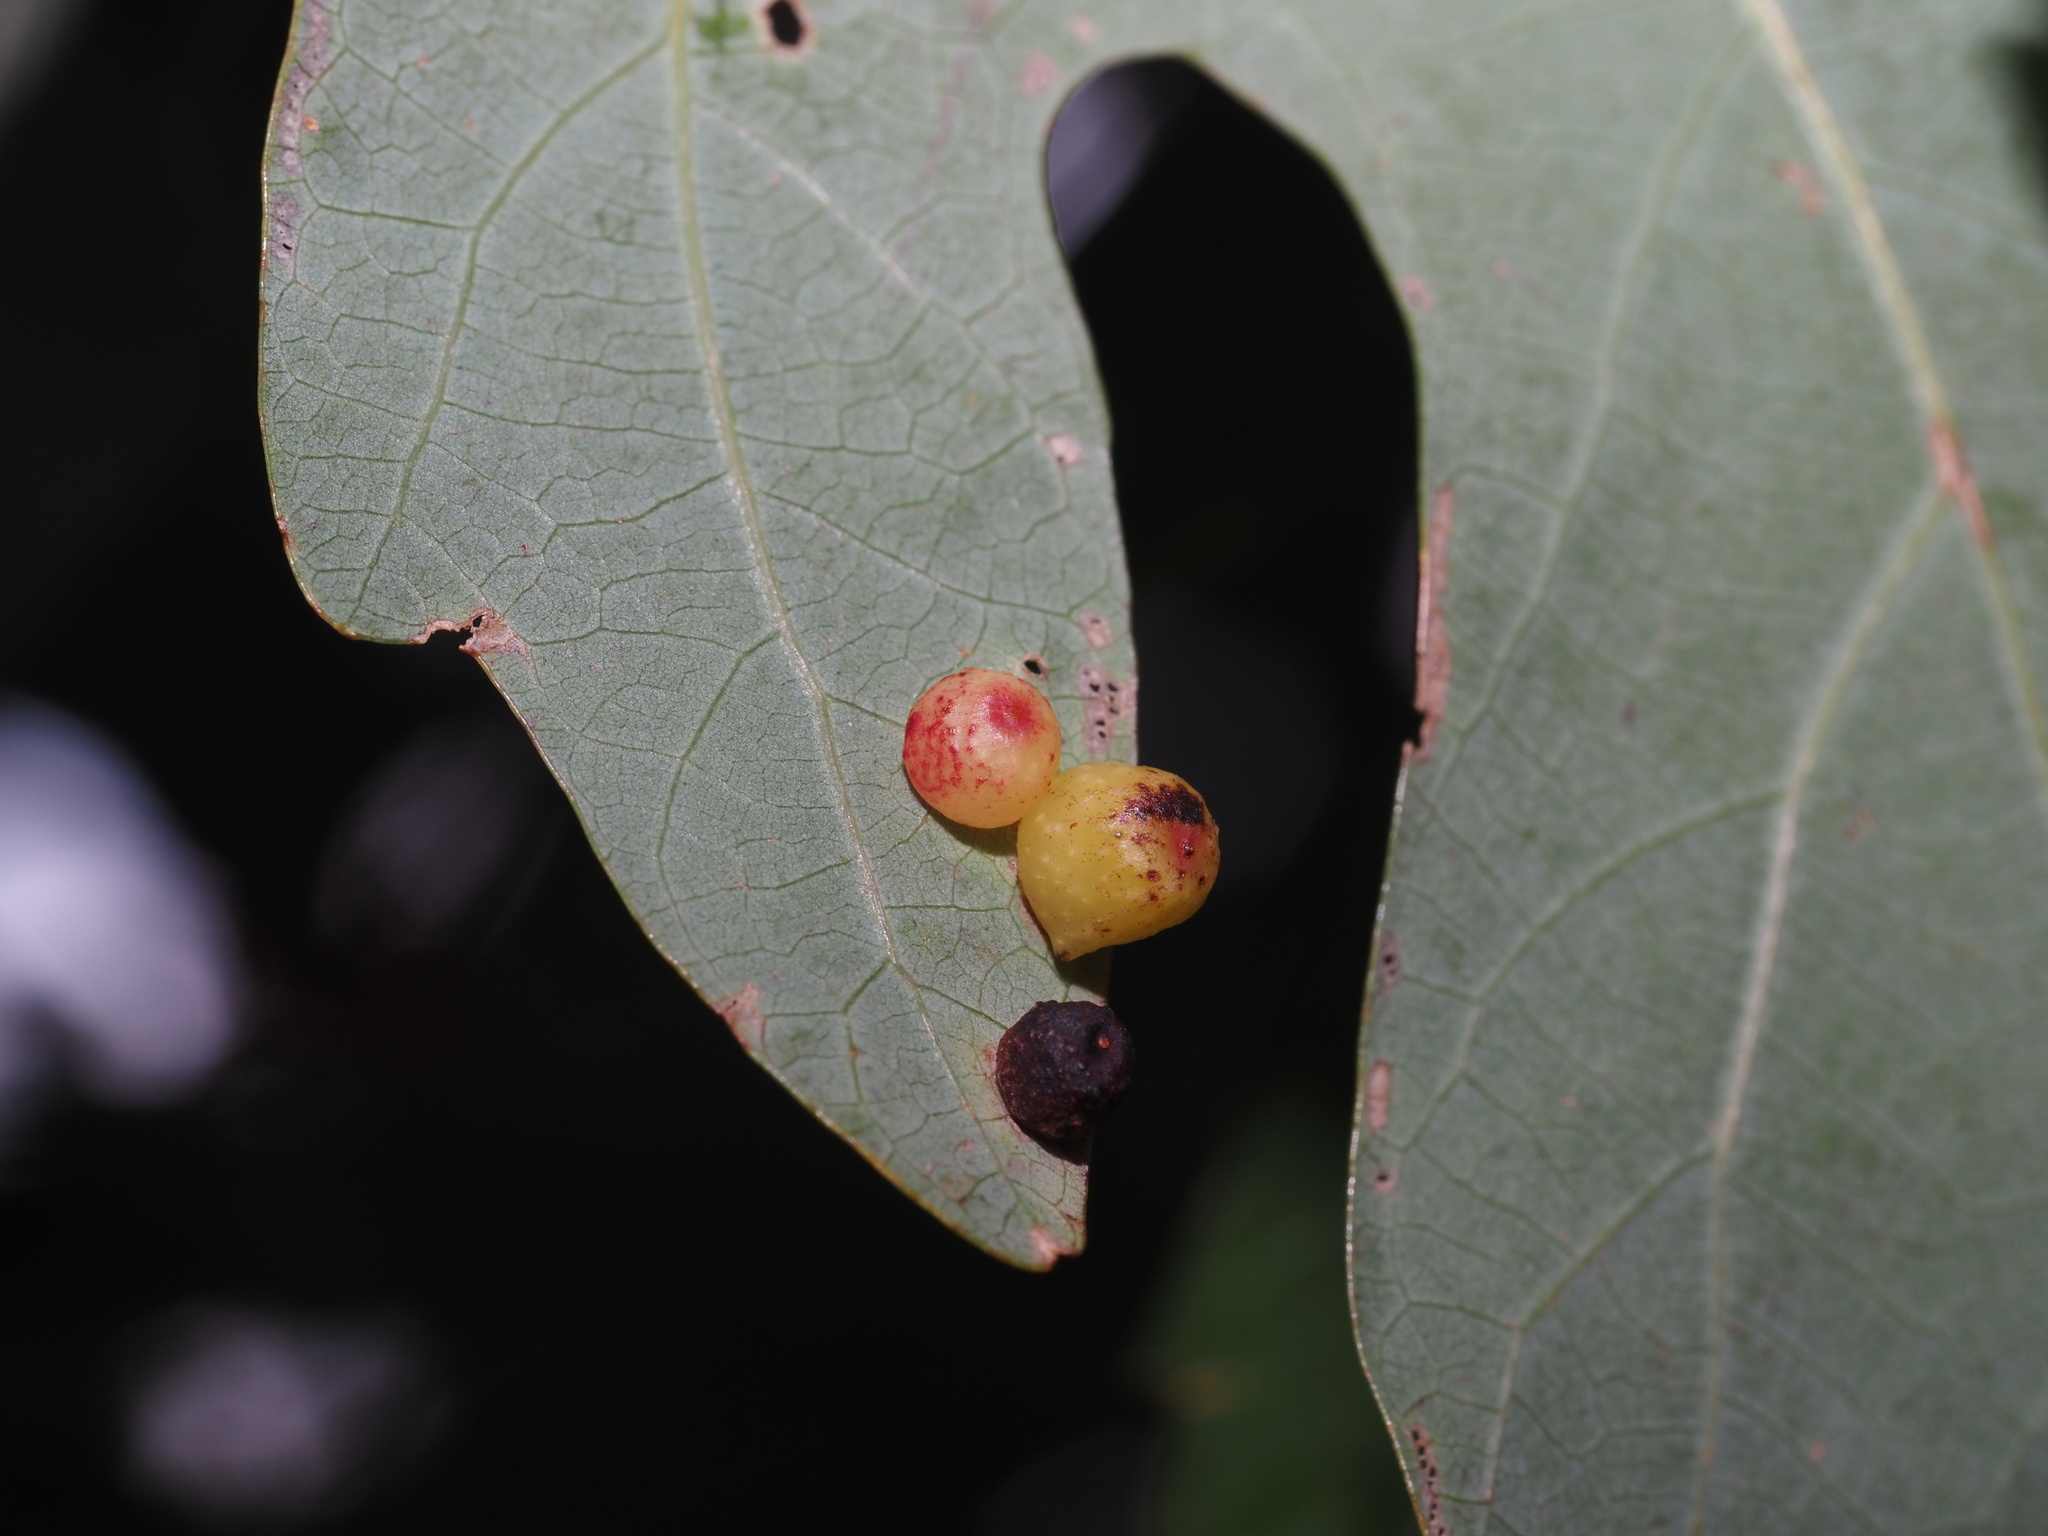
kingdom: Animalia
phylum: Arthropoda
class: Insecta
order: Hymenoptera
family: Cynipidae
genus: Andricus
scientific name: Andricus
